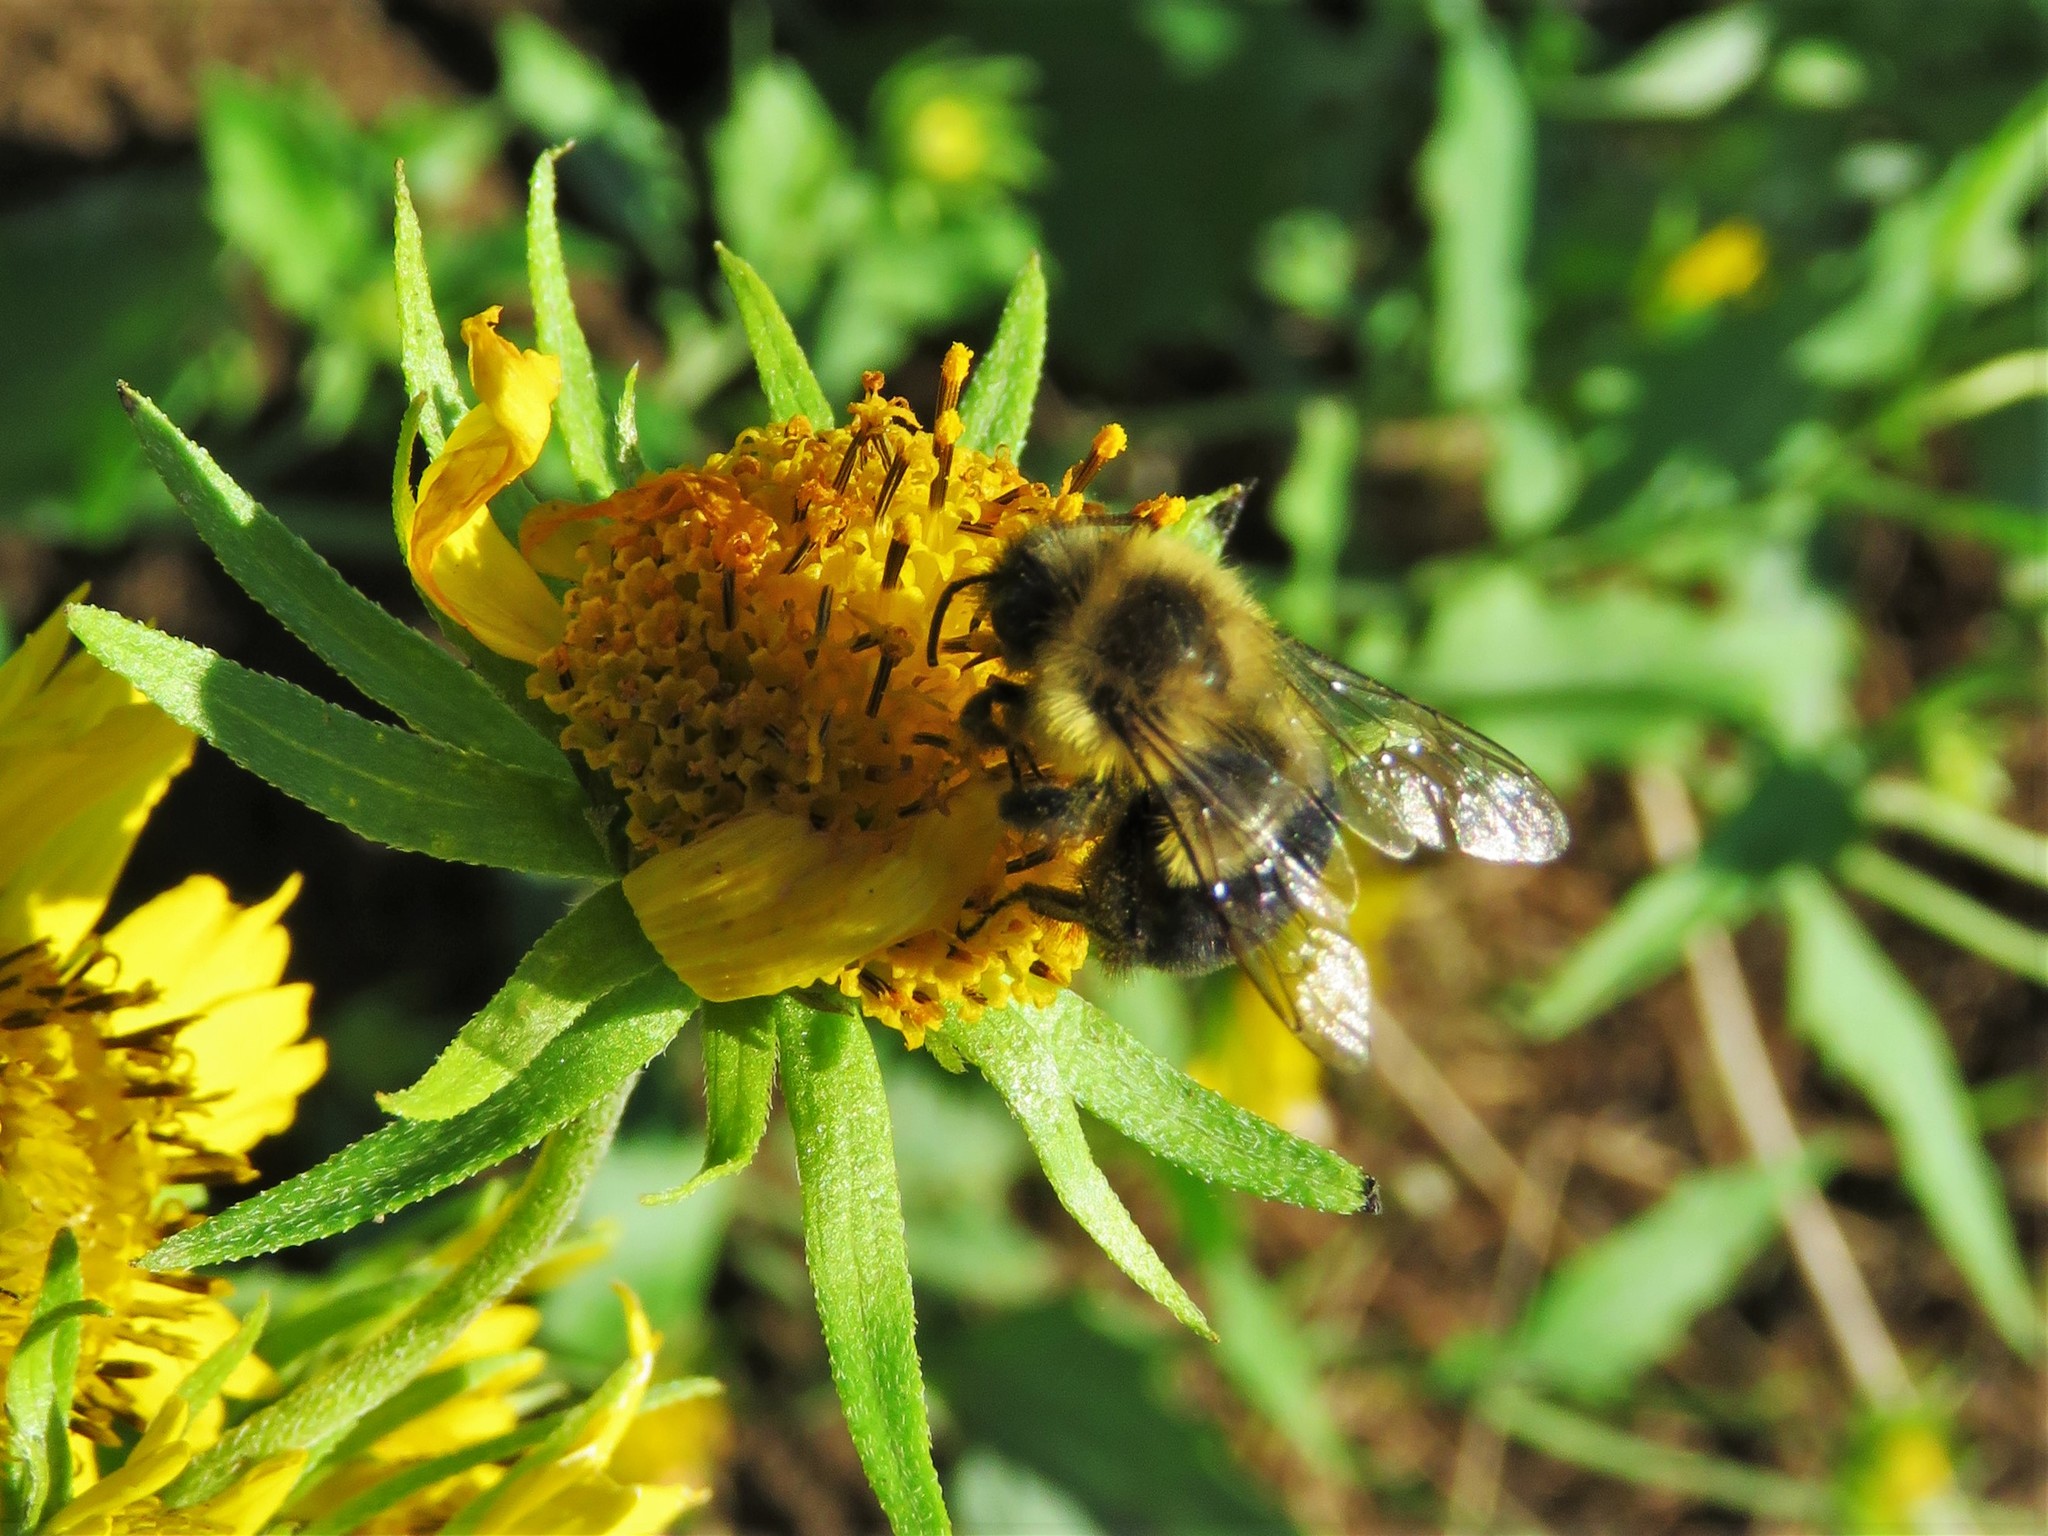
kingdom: Animalia
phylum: Arthropoda
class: Insecta
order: Hymenoptera
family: Apidae
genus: Bombus
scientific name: Bombus impatiens
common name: Common eastern bumble bee
